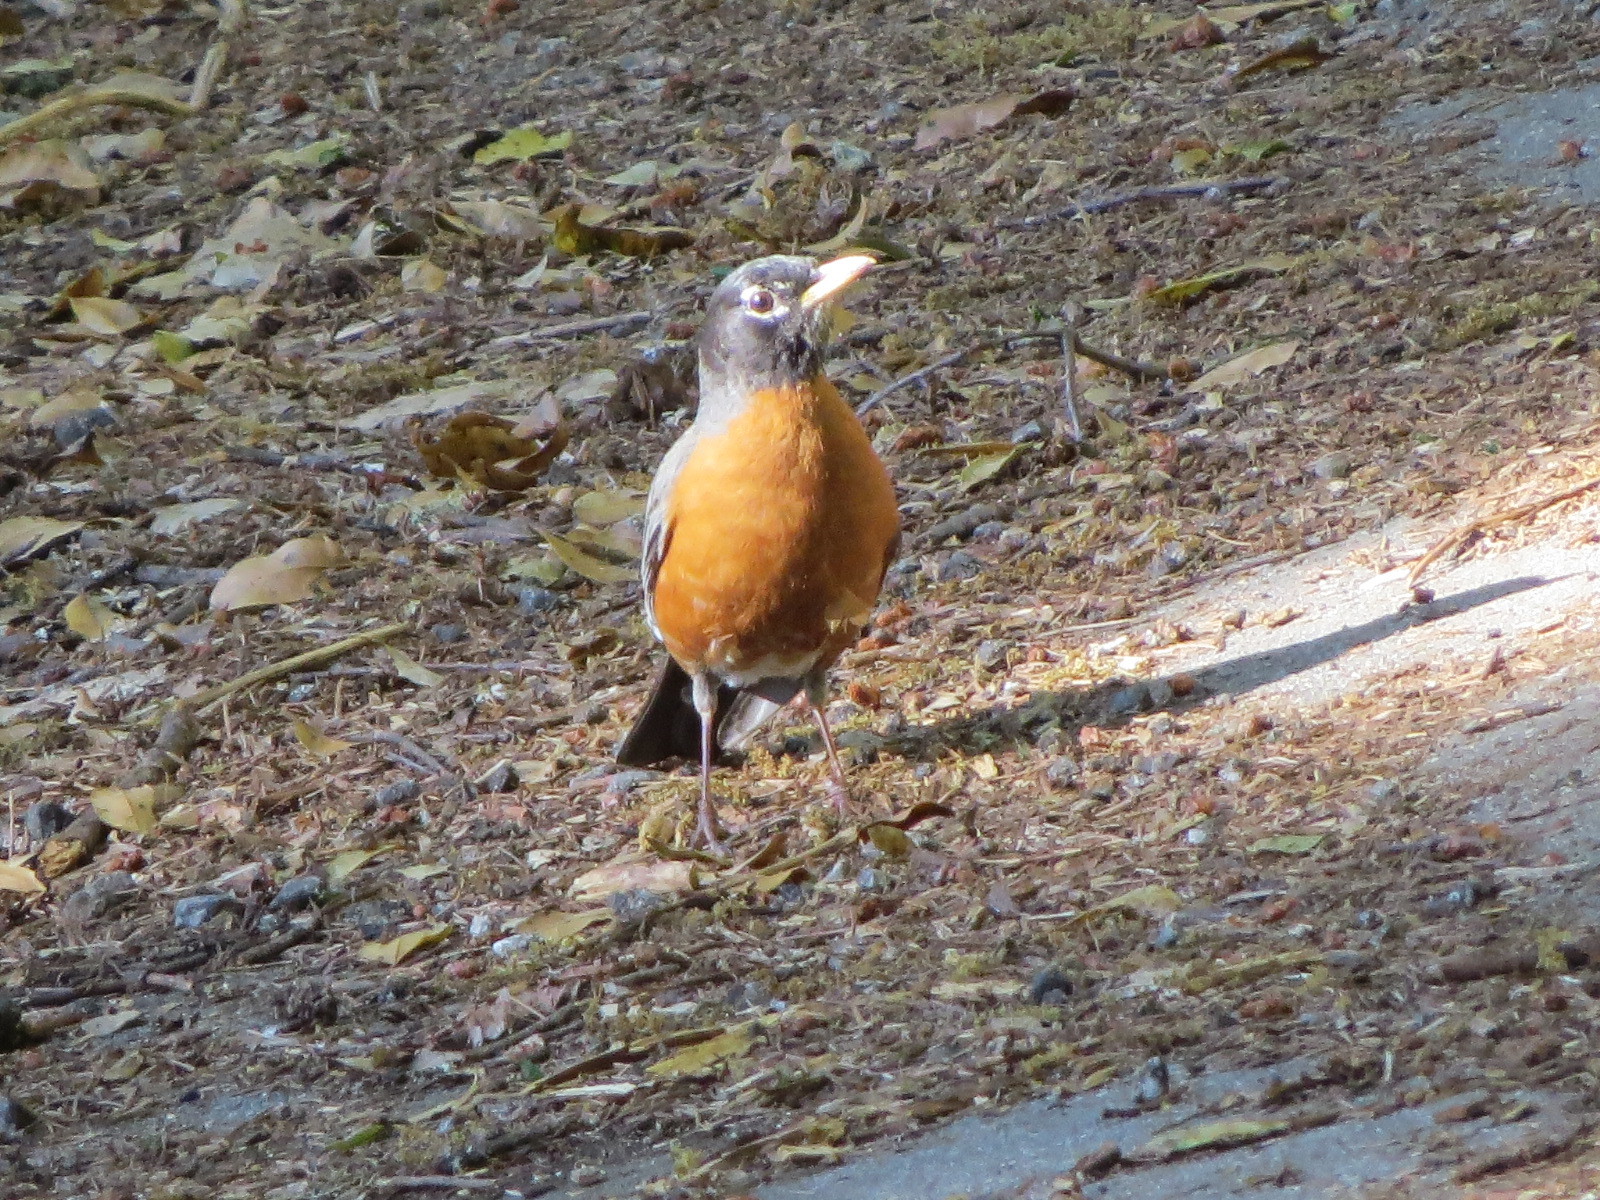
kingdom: Animalia
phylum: Chordata
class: Aves
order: Passeriformes
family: Turdidae
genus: Turdus
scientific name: Turdus migratorius
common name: American robin
